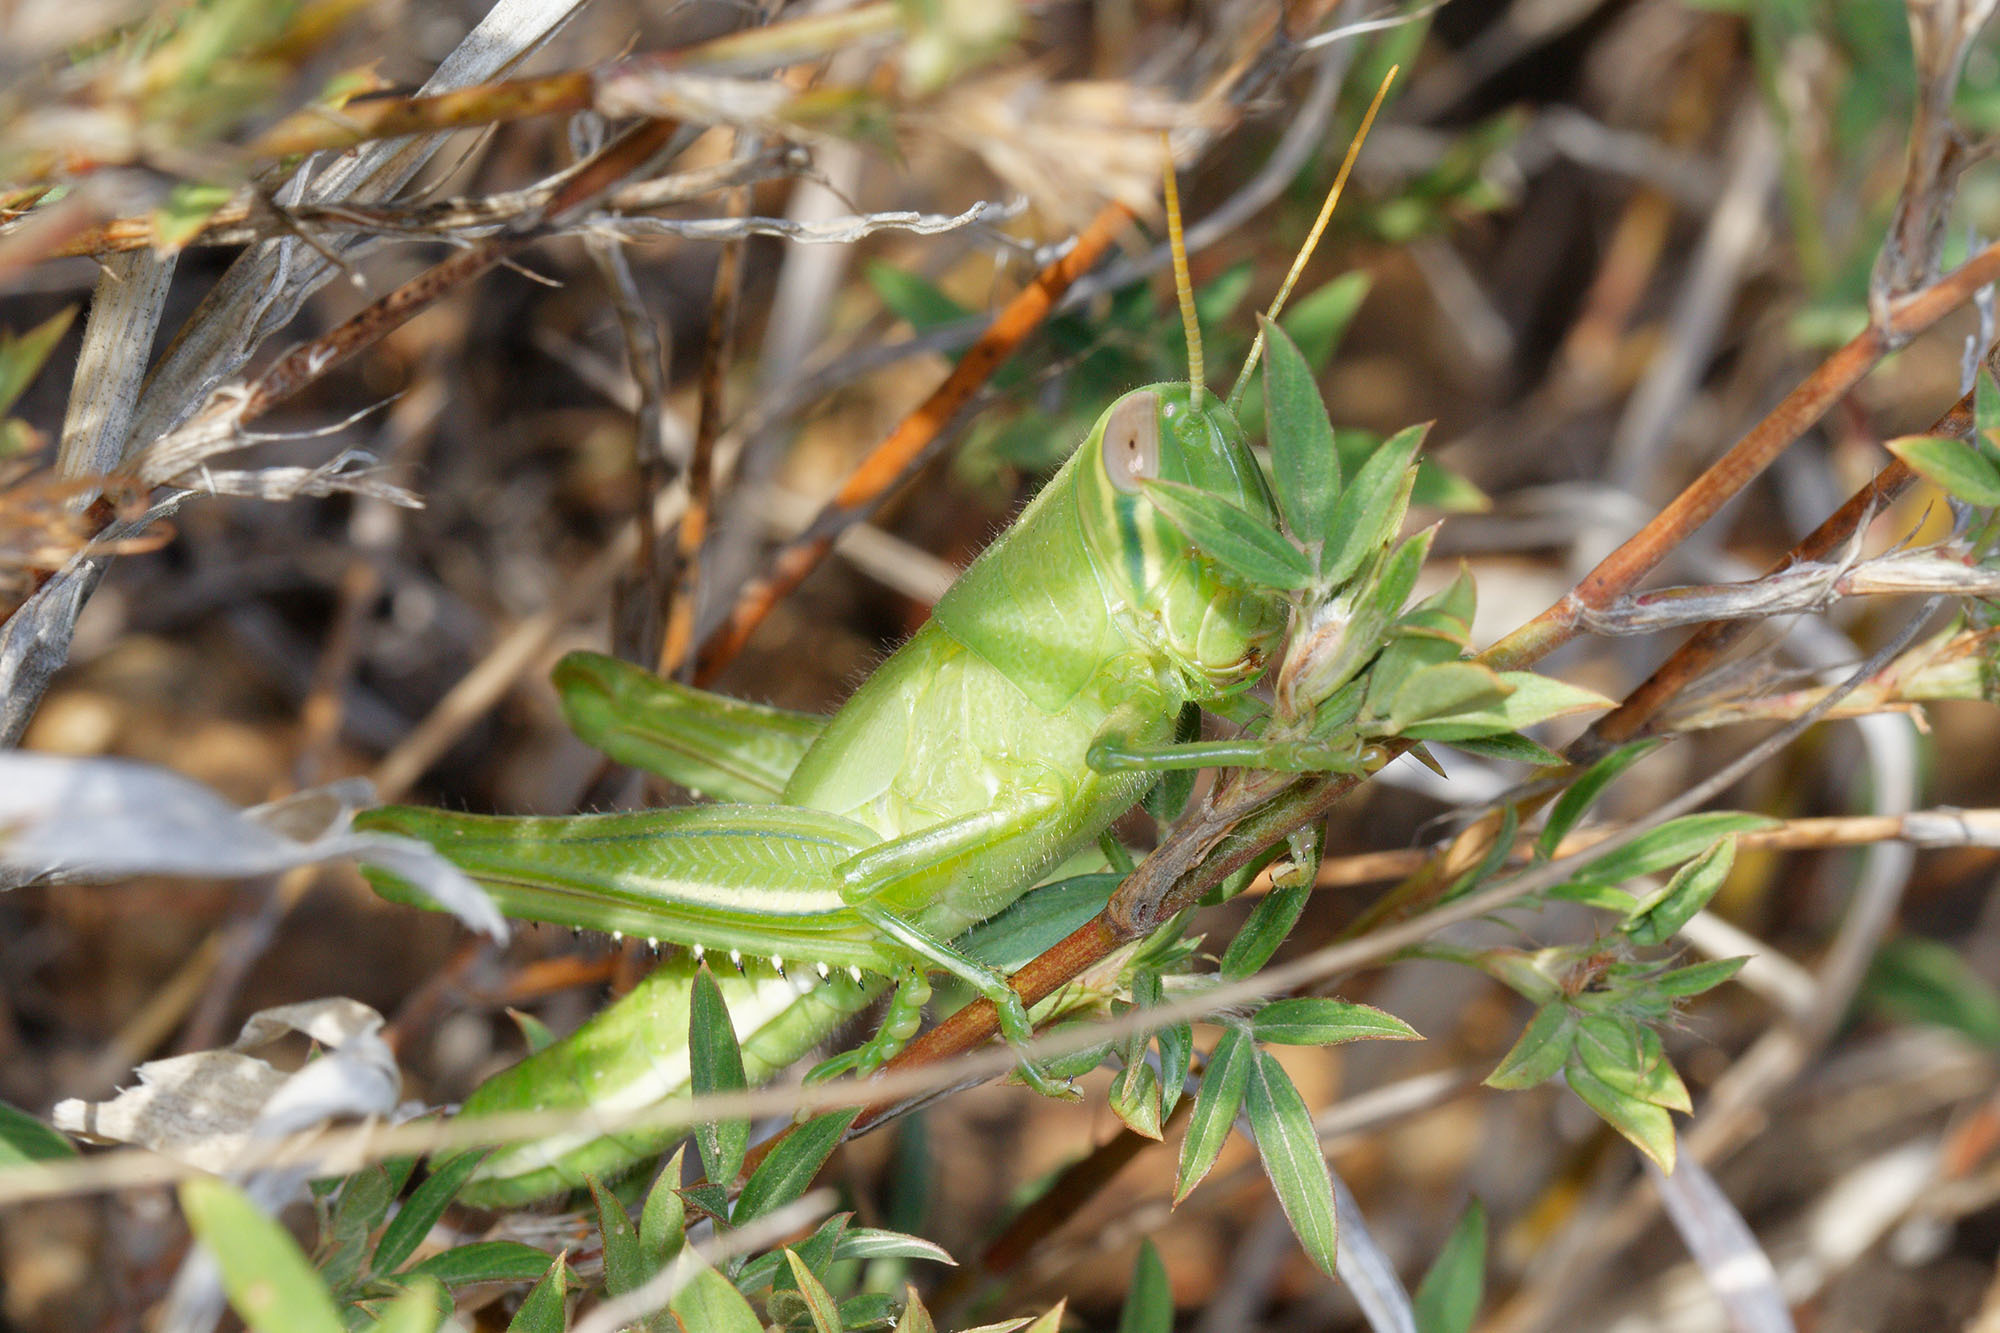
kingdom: Animalia
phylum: Arthropoda
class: Insecta
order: Orthoptera
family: Acrididae
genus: Austracris
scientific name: Austracris basalis
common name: Spotted spur-throated locust
